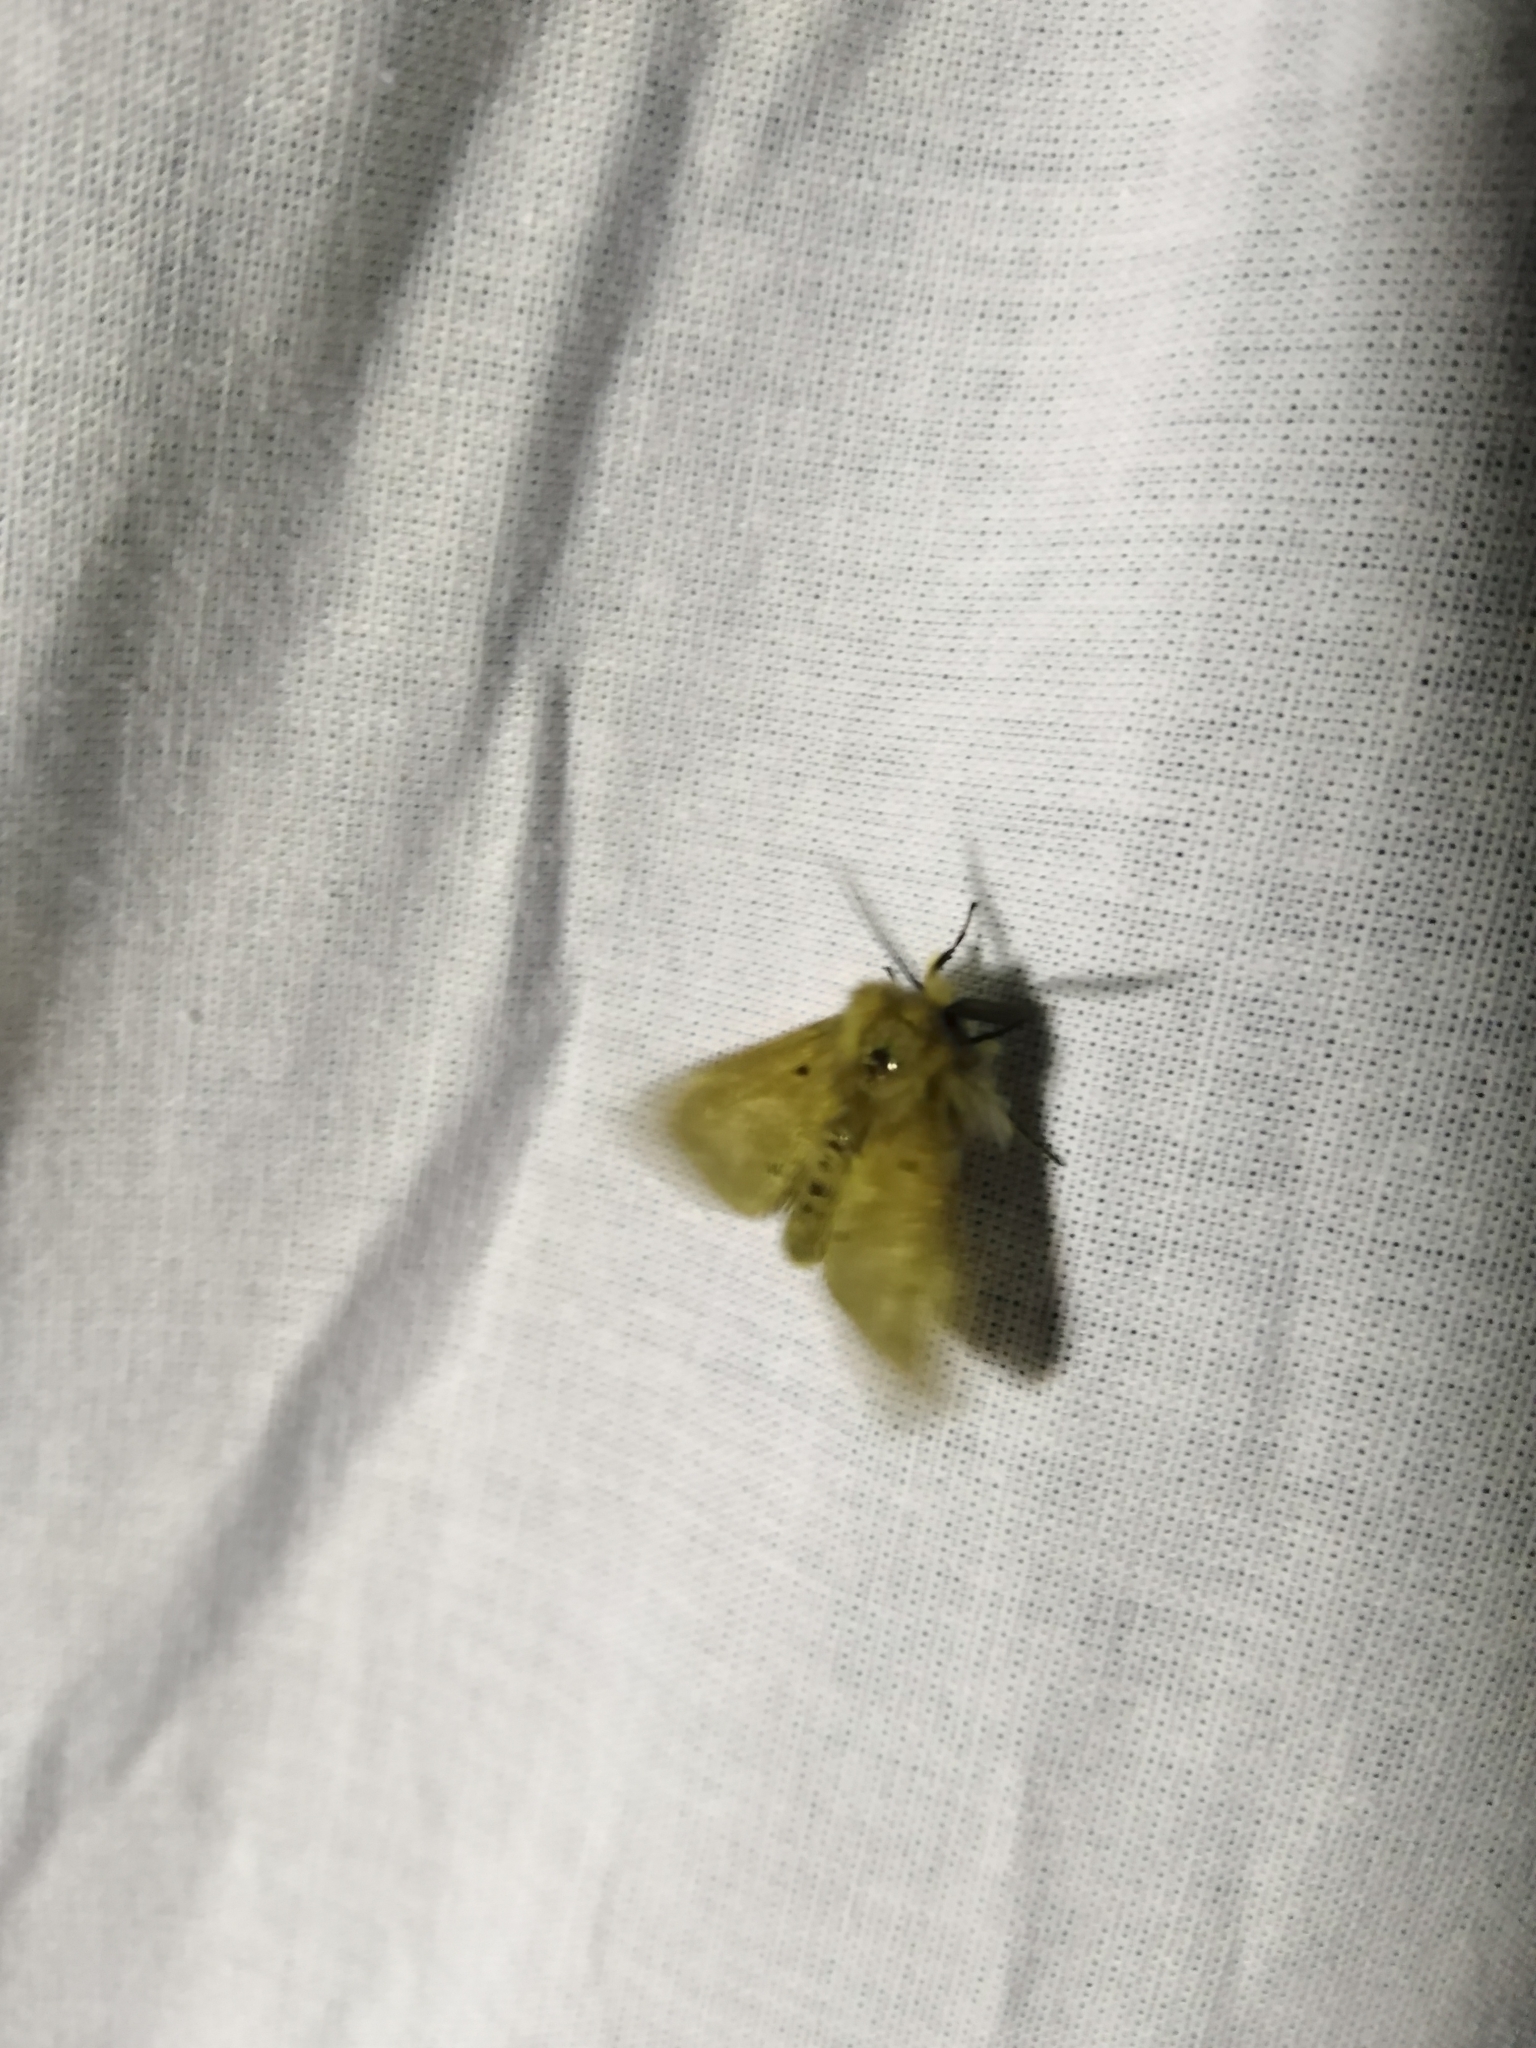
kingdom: Animalia
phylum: Arthropoda
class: Insecta
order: Lepidoptera
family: Erebidae
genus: Diaphora
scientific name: Diaphora mendica
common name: Muslin moth
